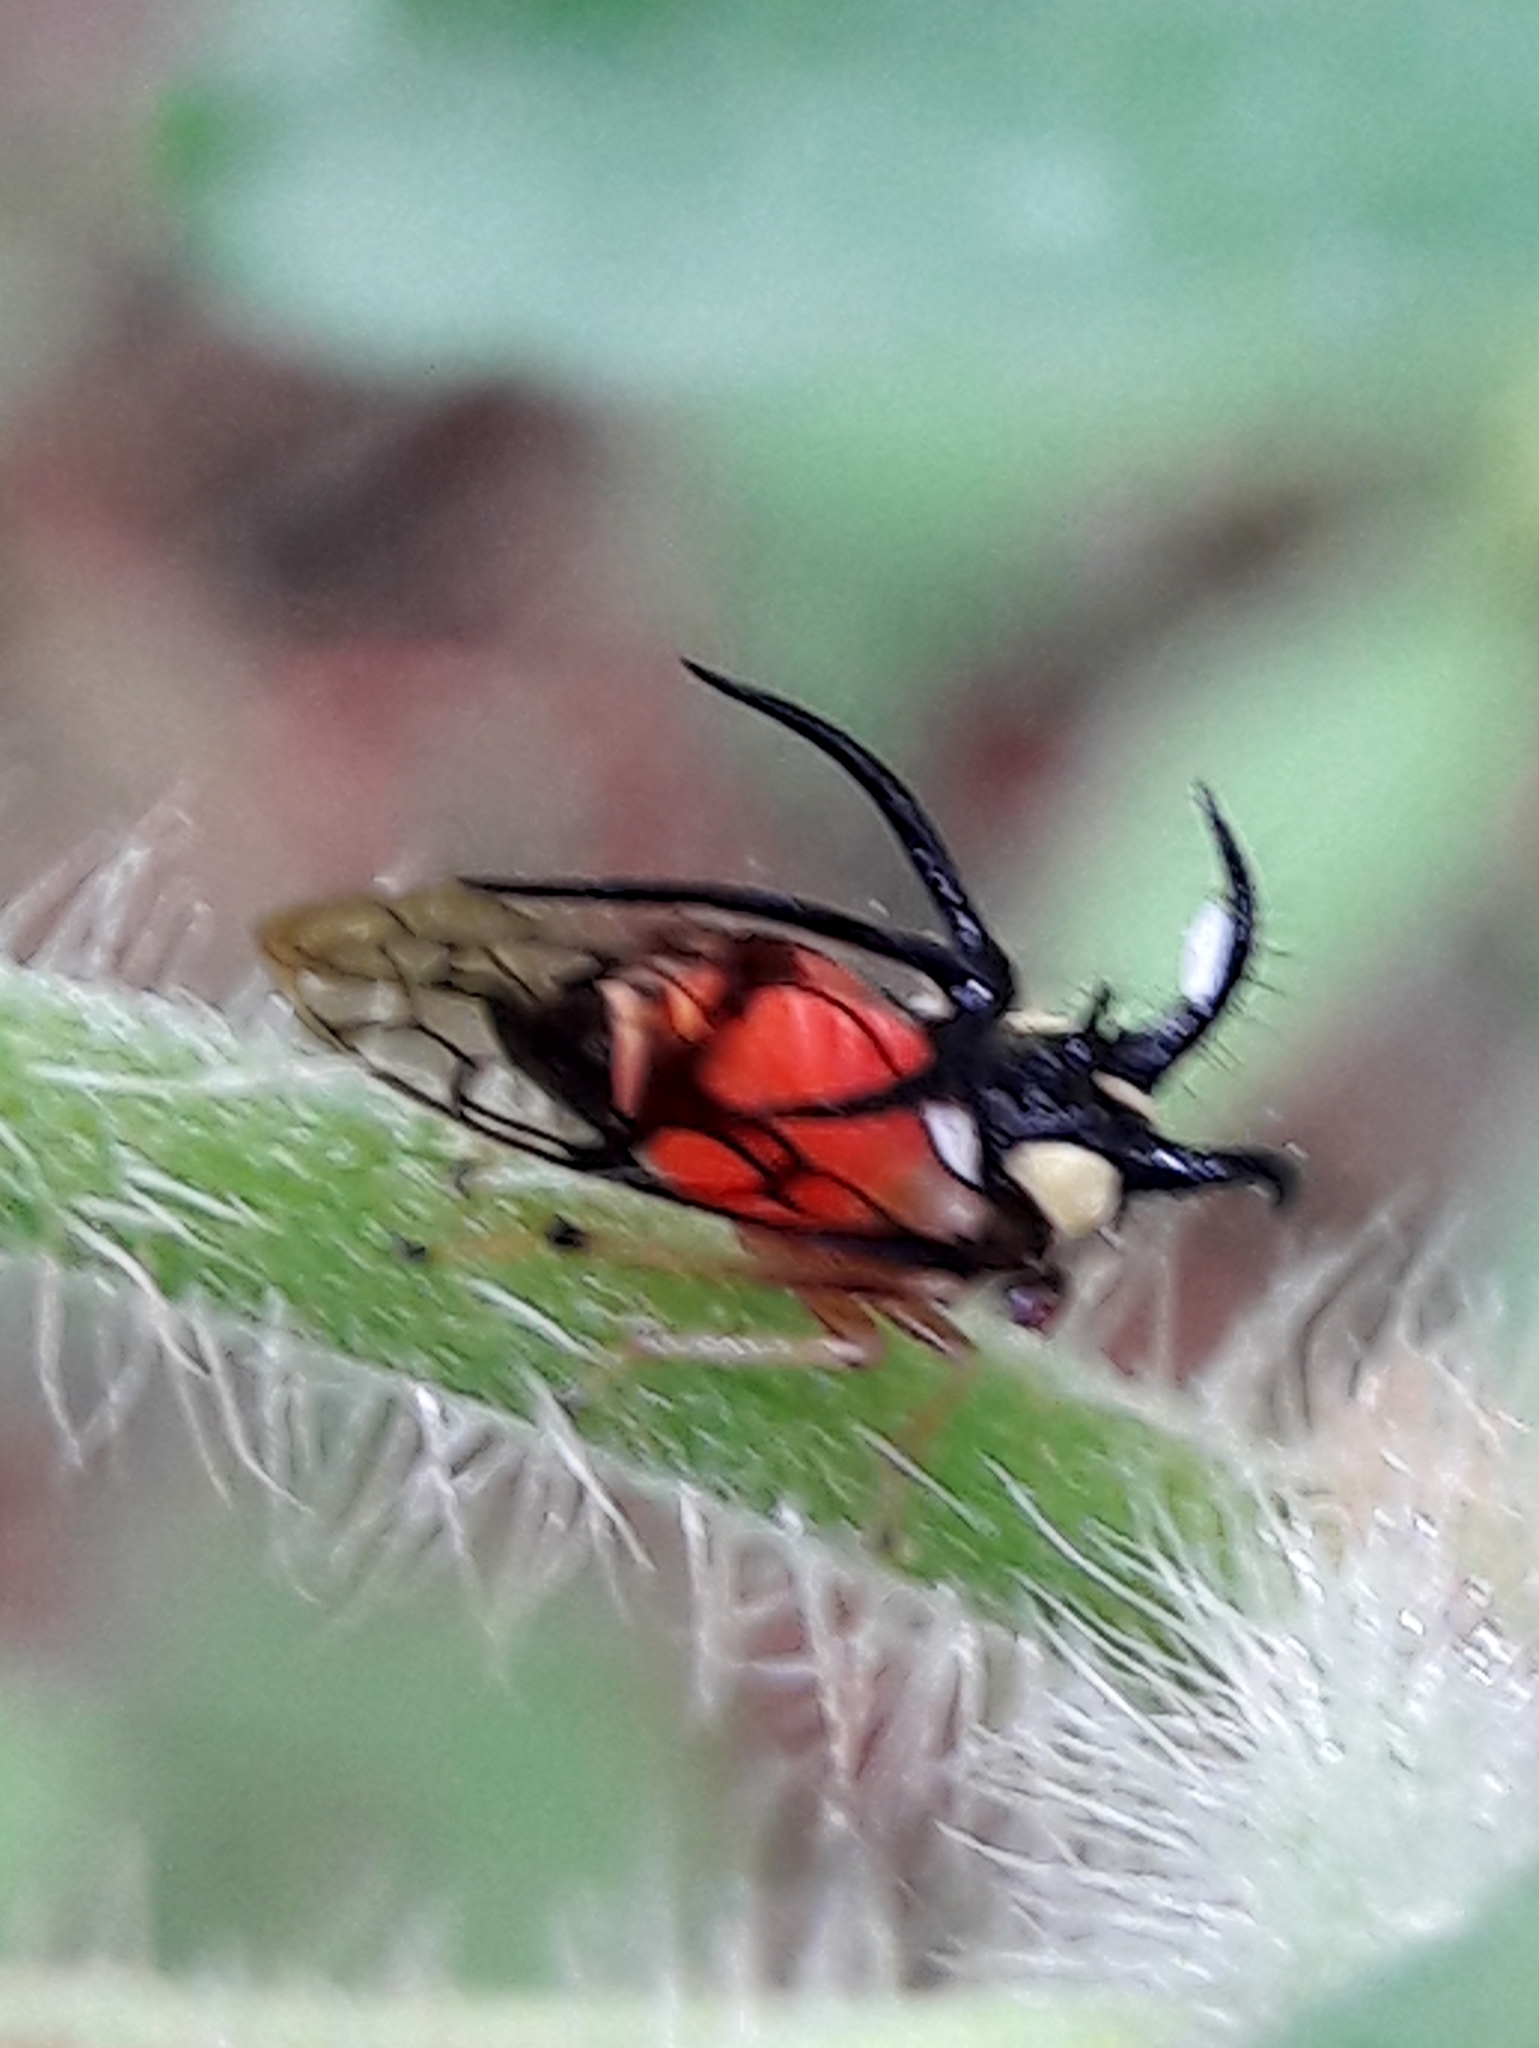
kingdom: Animalia
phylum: Arthropoda
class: Insecta
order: Hemiptera
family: Membracidae
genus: Cyphonia
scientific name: Cyphonia trifida
